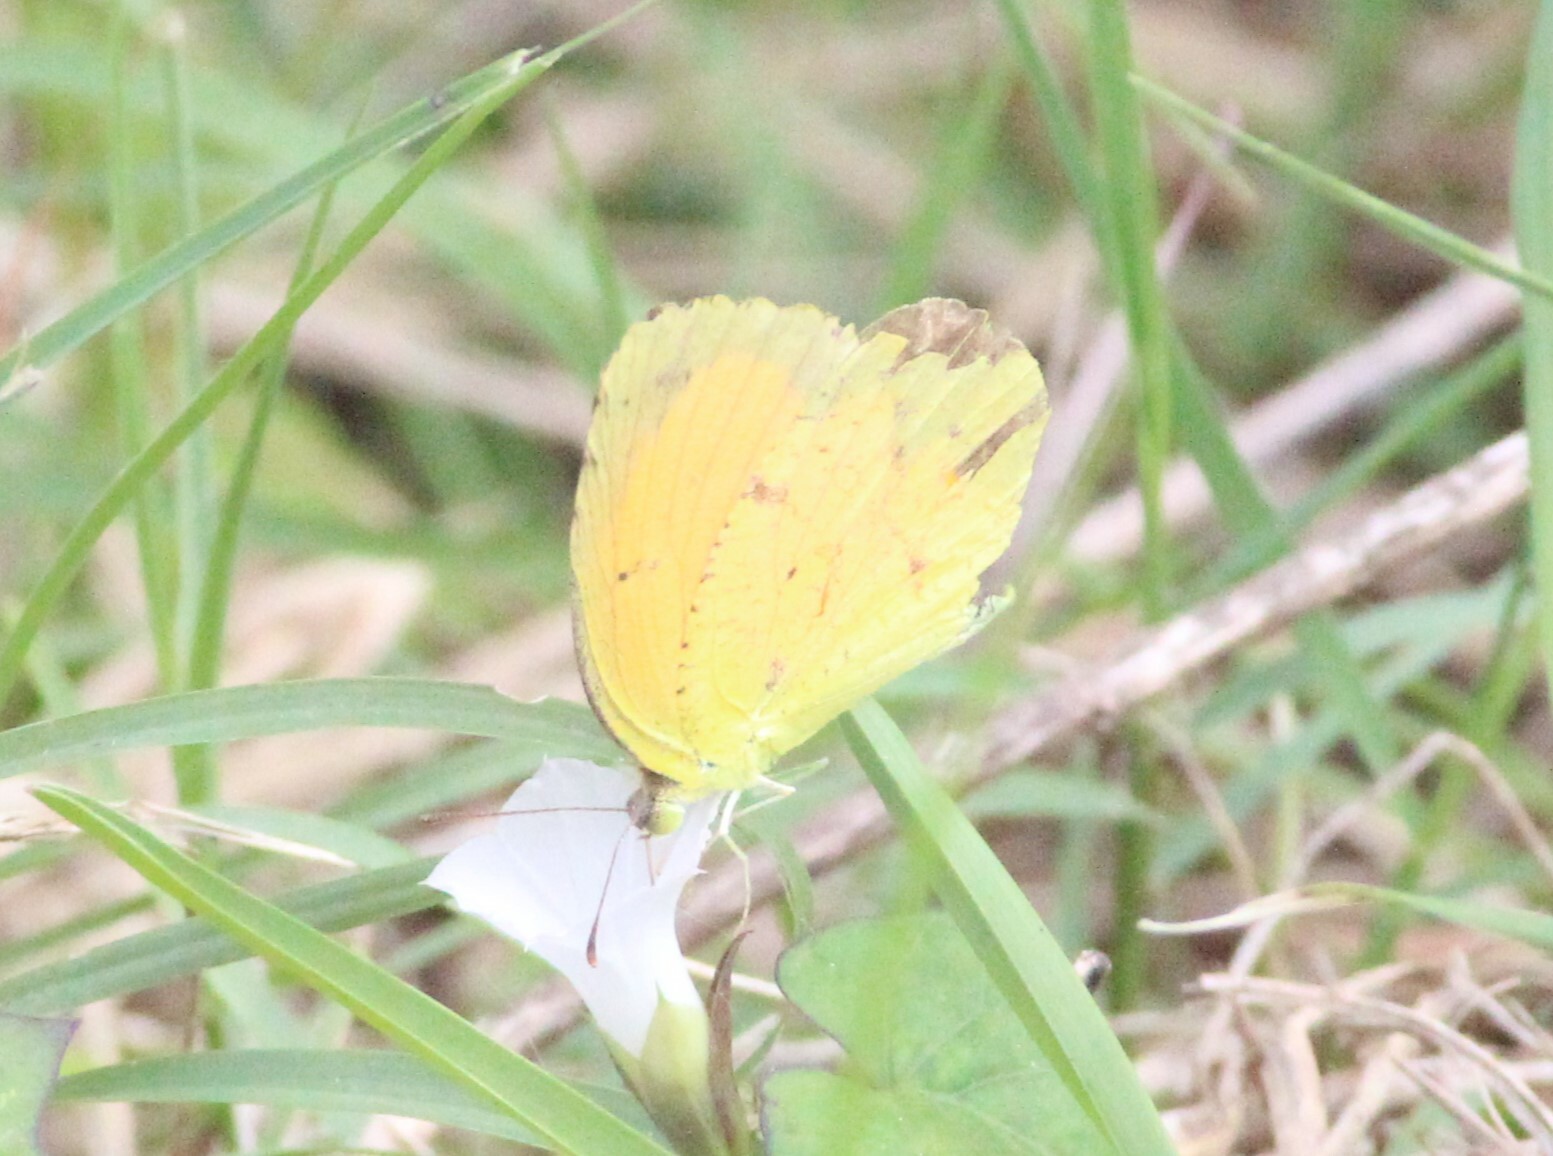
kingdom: Animalia
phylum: Arthropoda
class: Insecta
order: Lepidoptera
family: Pieridae
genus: Abaeis
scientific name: Abaeis nicippe
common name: Sleepy orange
